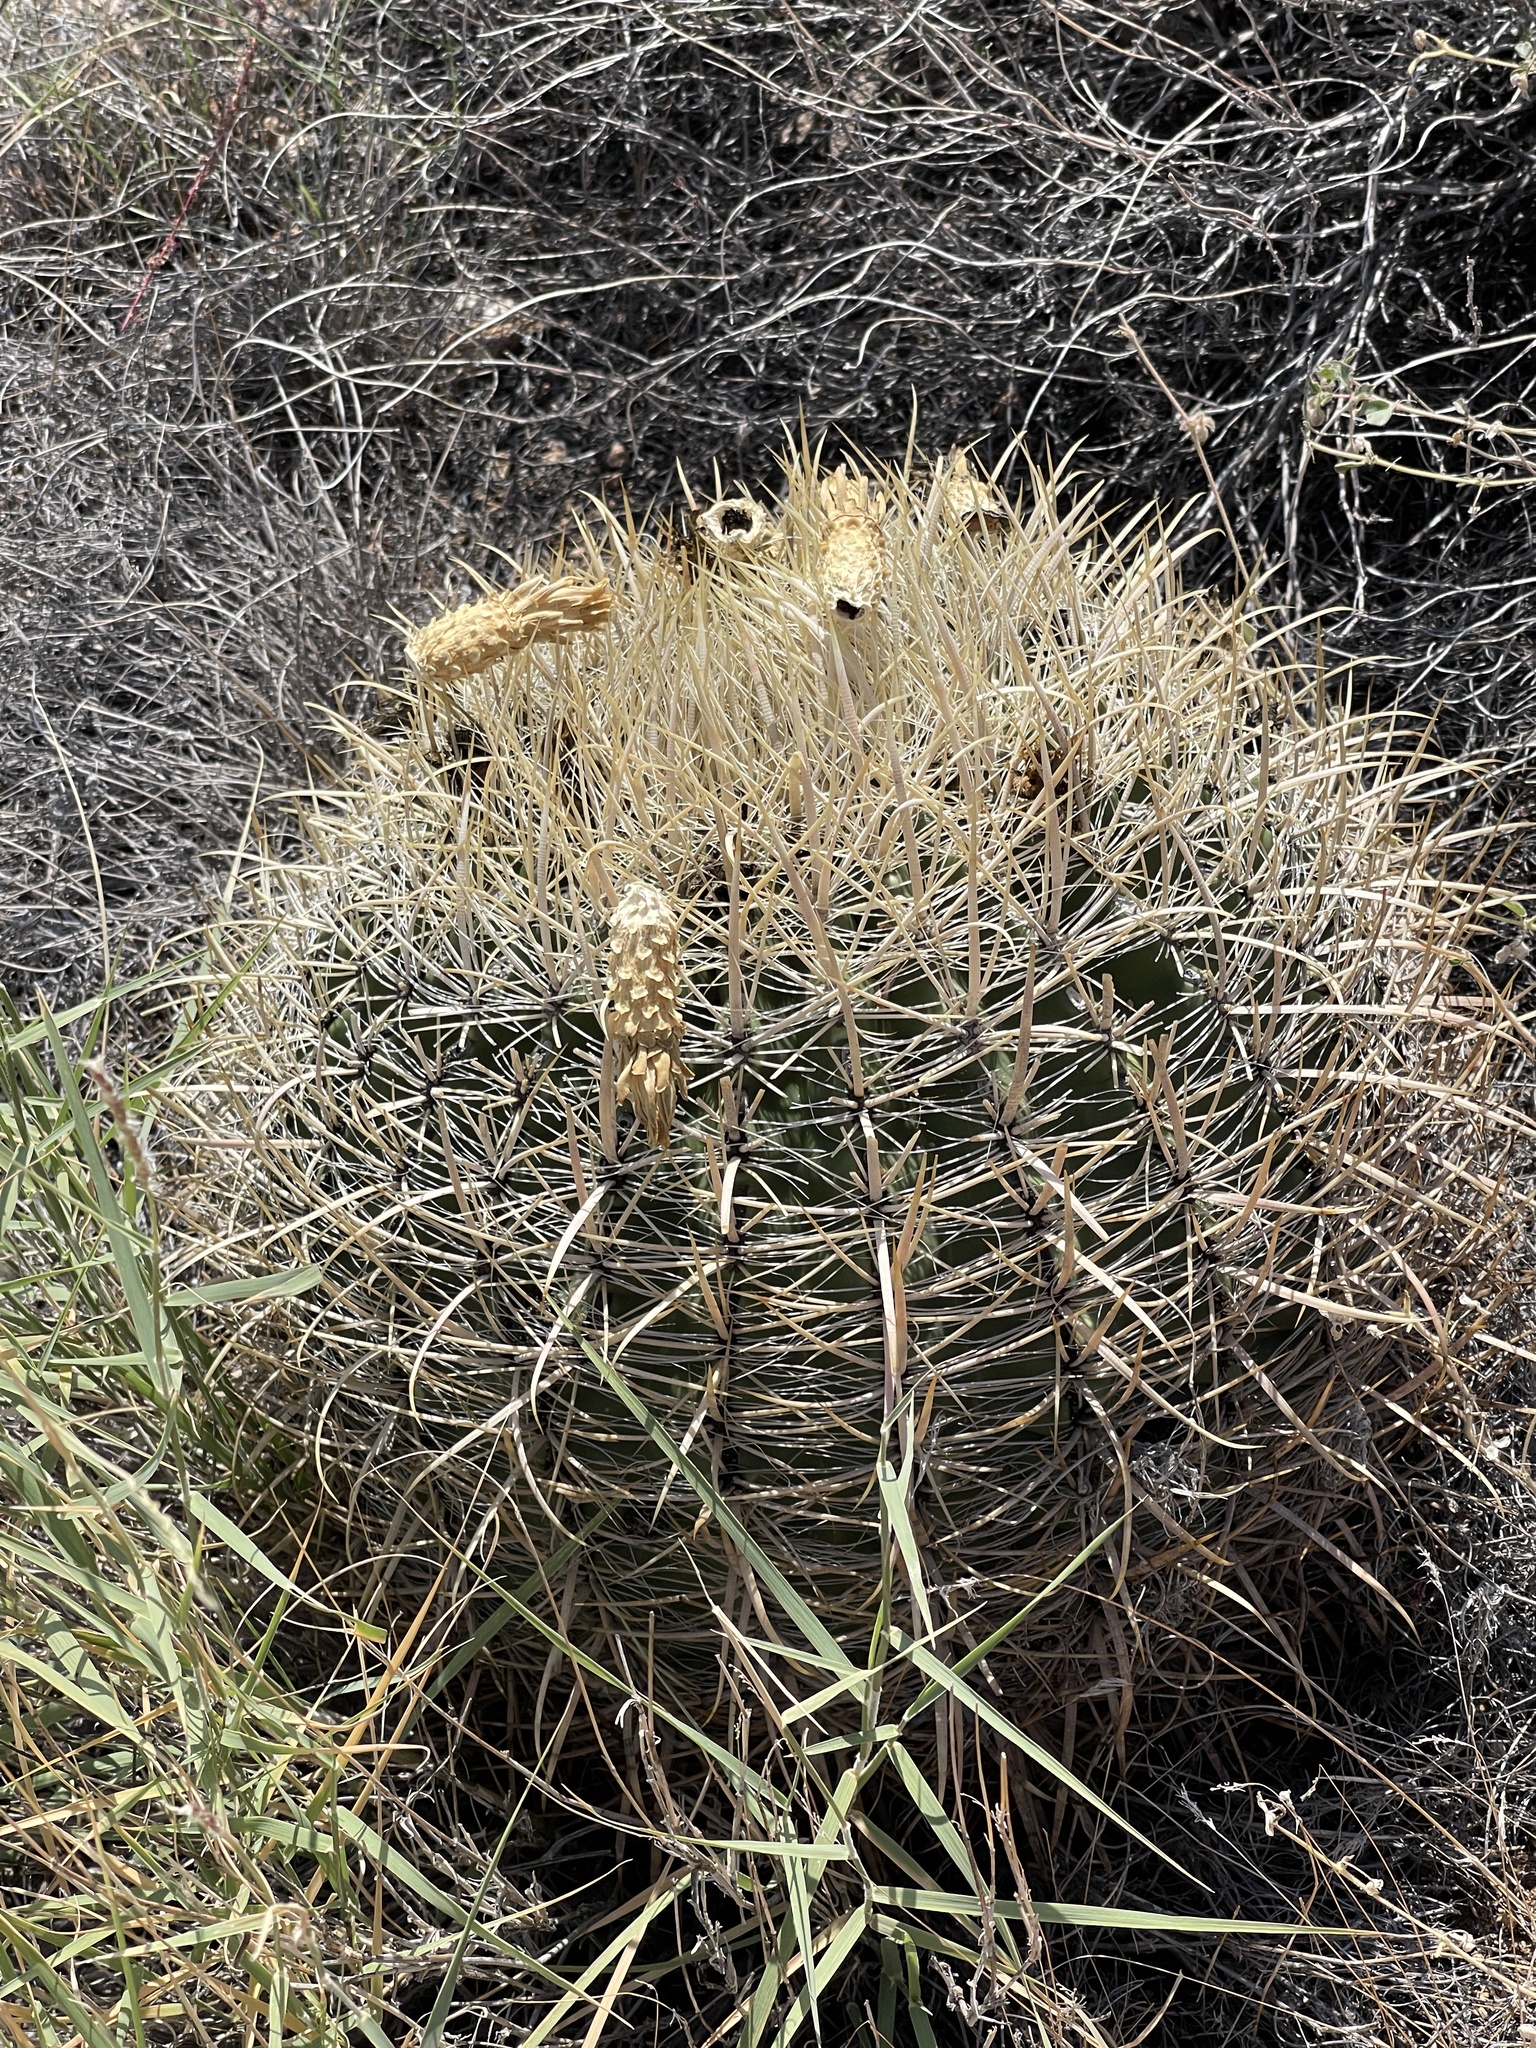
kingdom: Plantae
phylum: Tracheophyta
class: Magnoliopsida
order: Caryophyllales
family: Cactaceae
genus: Ferocactus
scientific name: Ferocactus cylindraceus
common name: California barrel cactus
